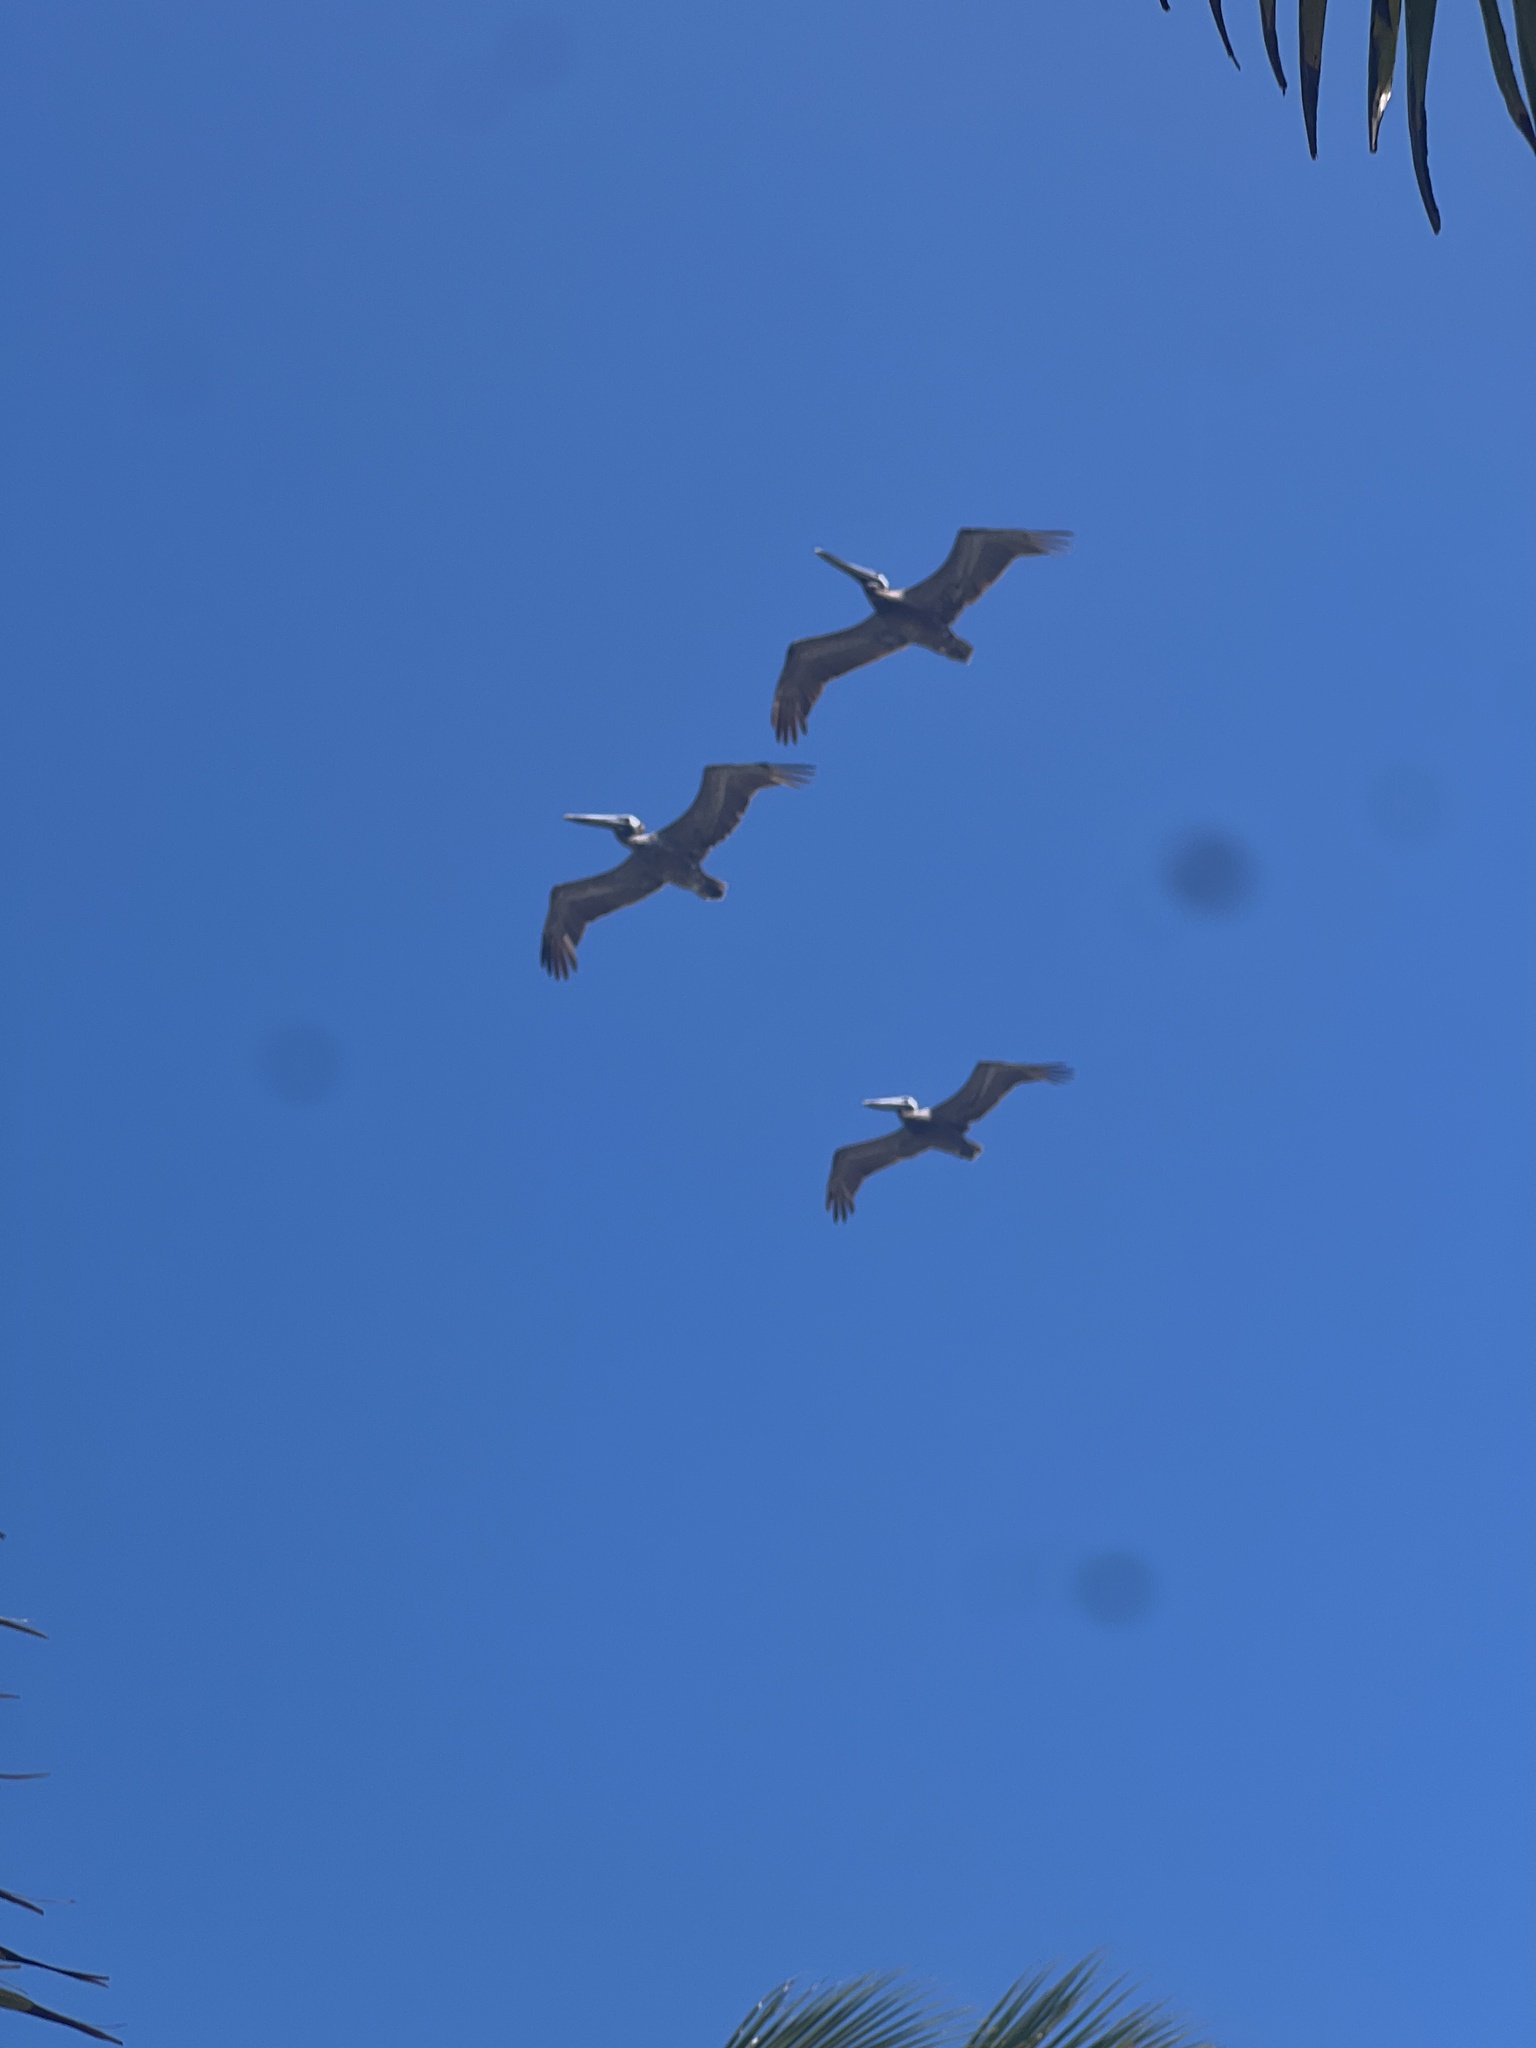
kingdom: Animalia
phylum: Chordata
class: Aves
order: Pelecaniformes
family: Pelecanidae
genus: Pelecanus
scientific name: Pelecanus occidentalis
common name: Brown pelican
